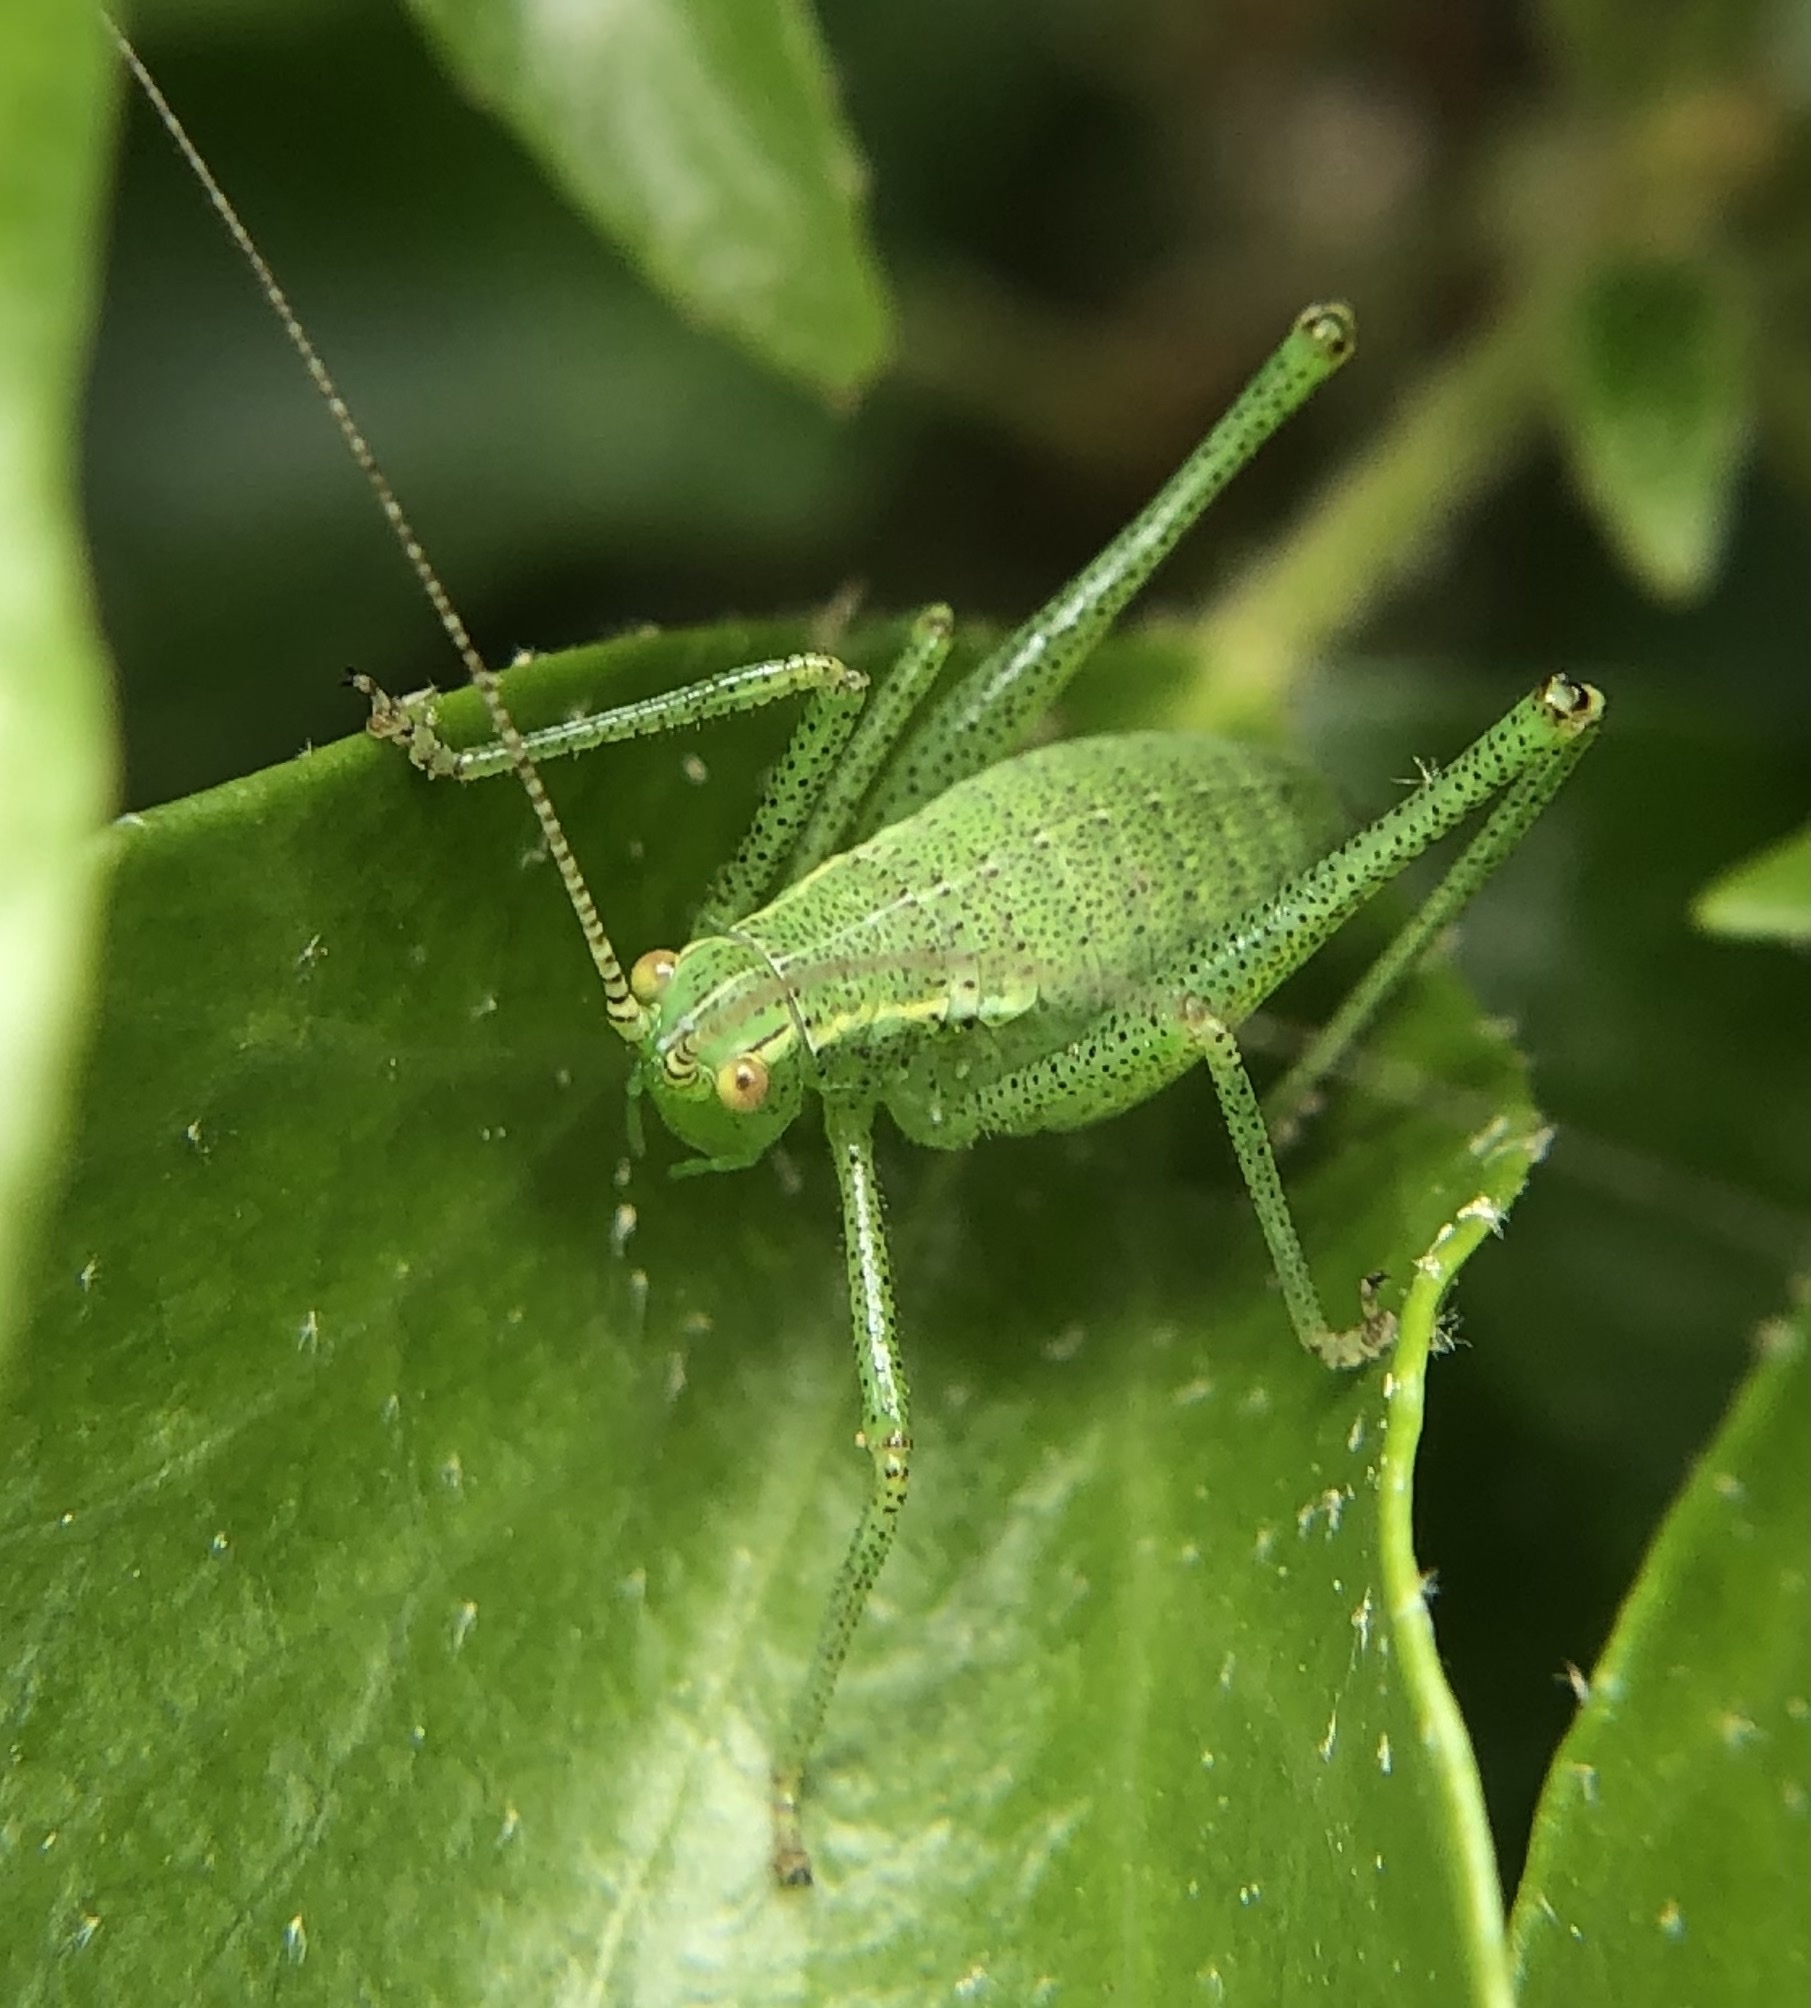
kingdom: Animalia
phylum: Arthropoda
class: Insecta
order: Orthoptera
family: Tettigoniidae
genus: Leptophyes
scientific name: Leptophyes punctatissima
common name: Speckled bush-cricket
